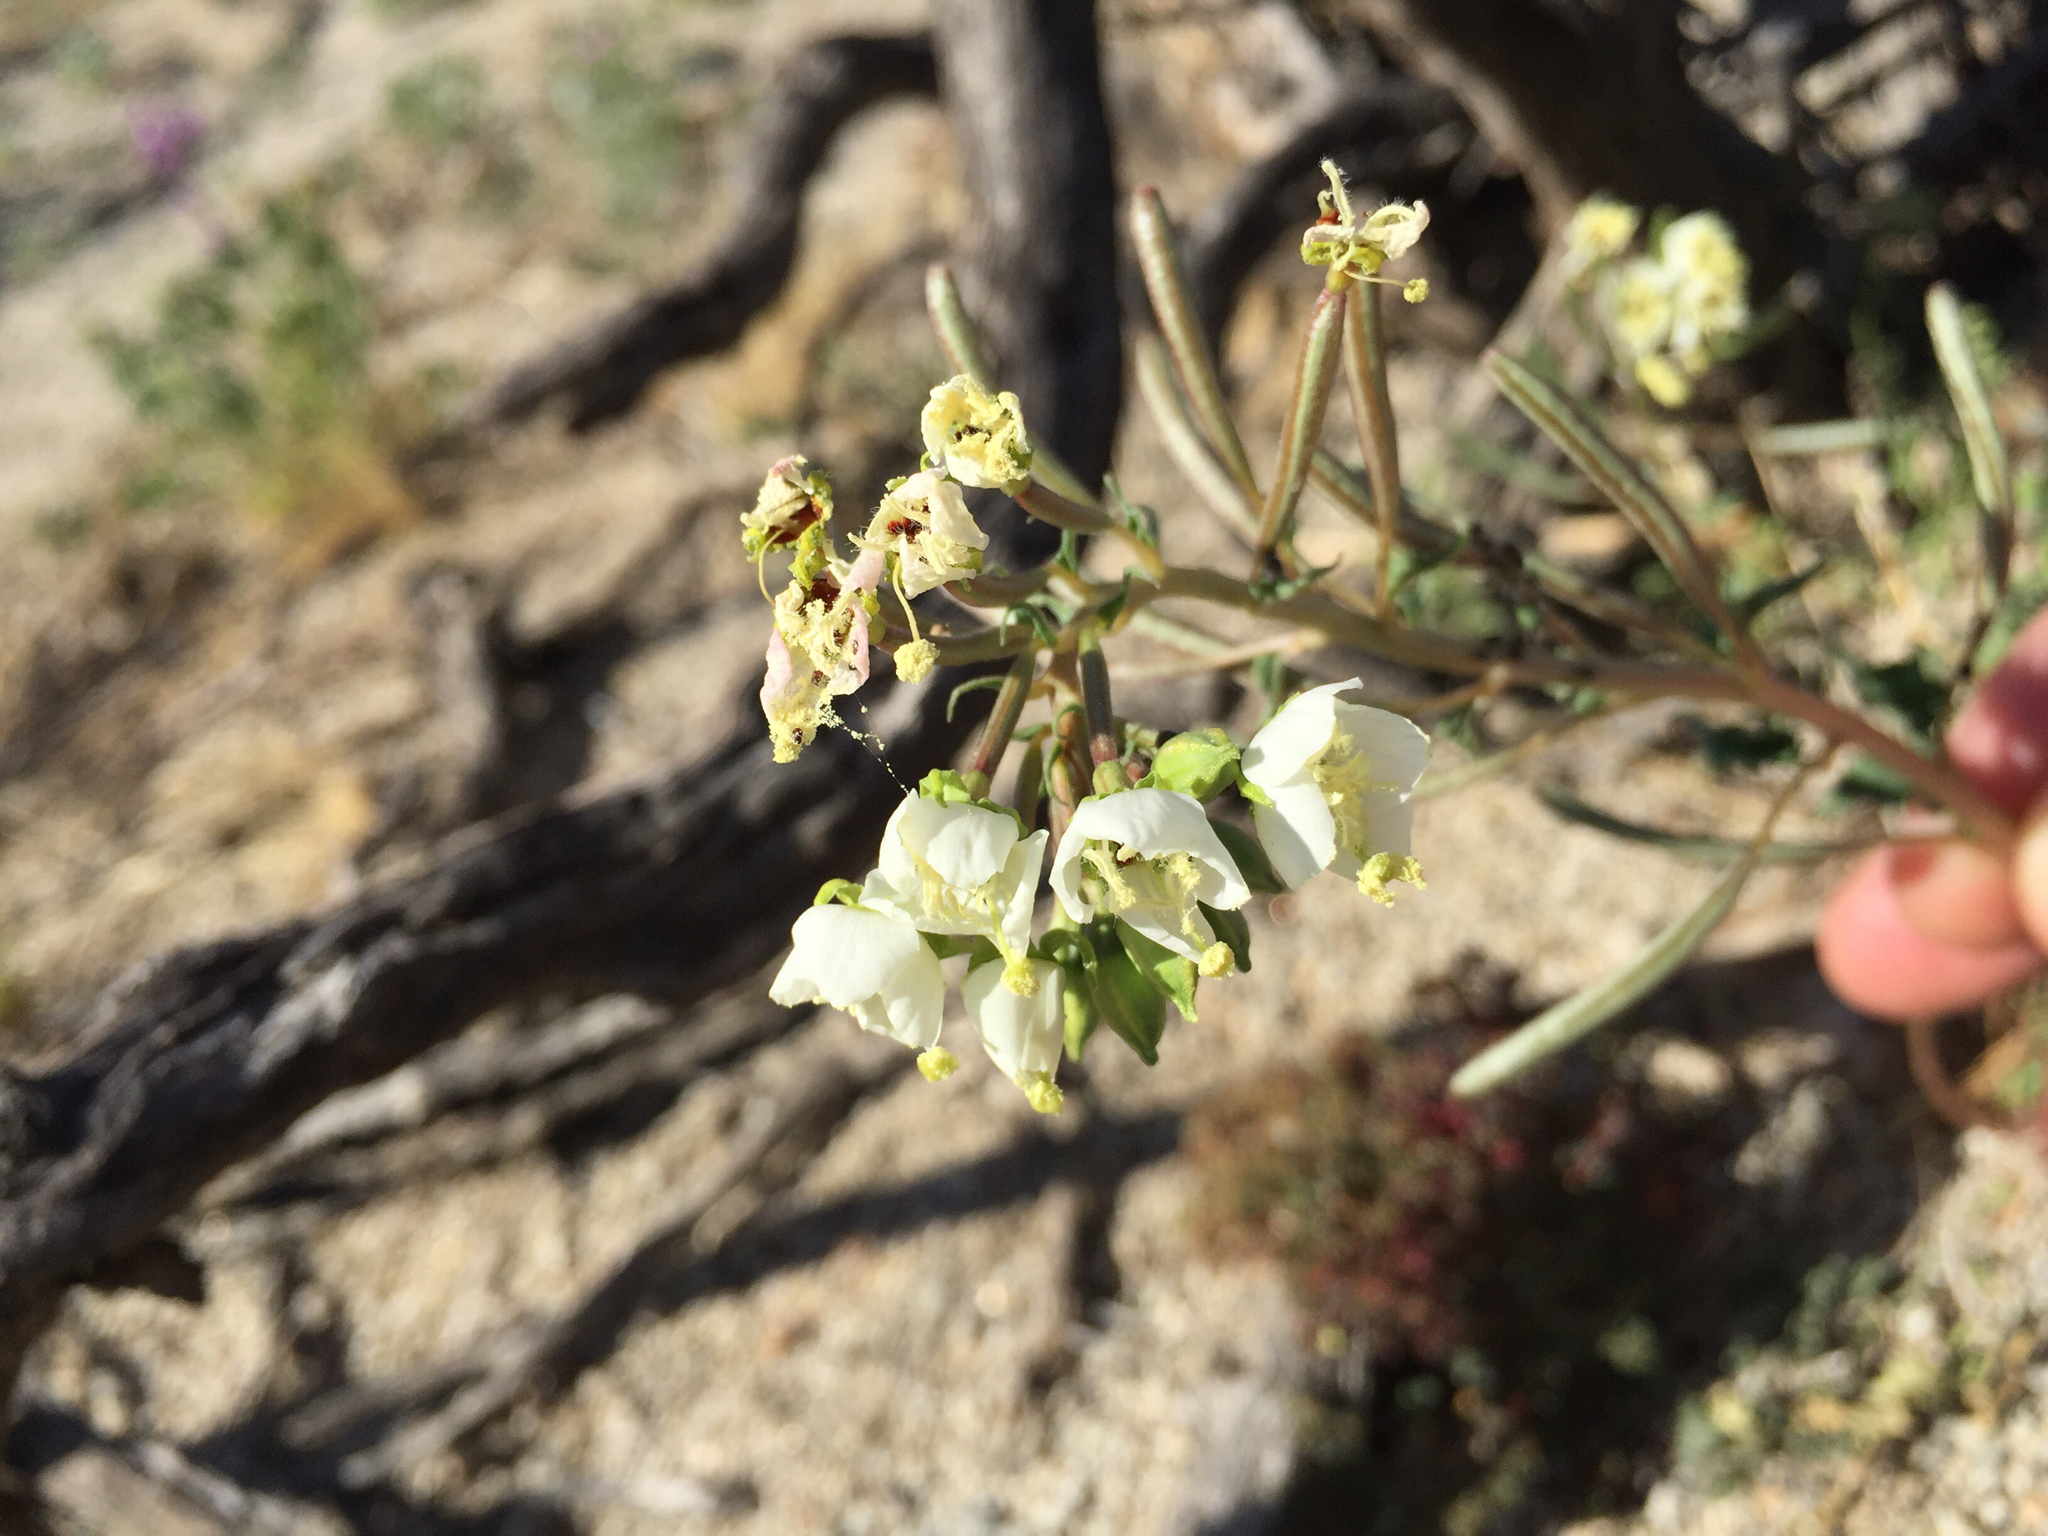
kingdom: Plantae
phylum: Tracheophyta
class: Magnoliopsida
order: Myrtales
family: Onagraceae
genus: Chylismia
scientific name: Chylismia claviformis
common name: Browneyes
